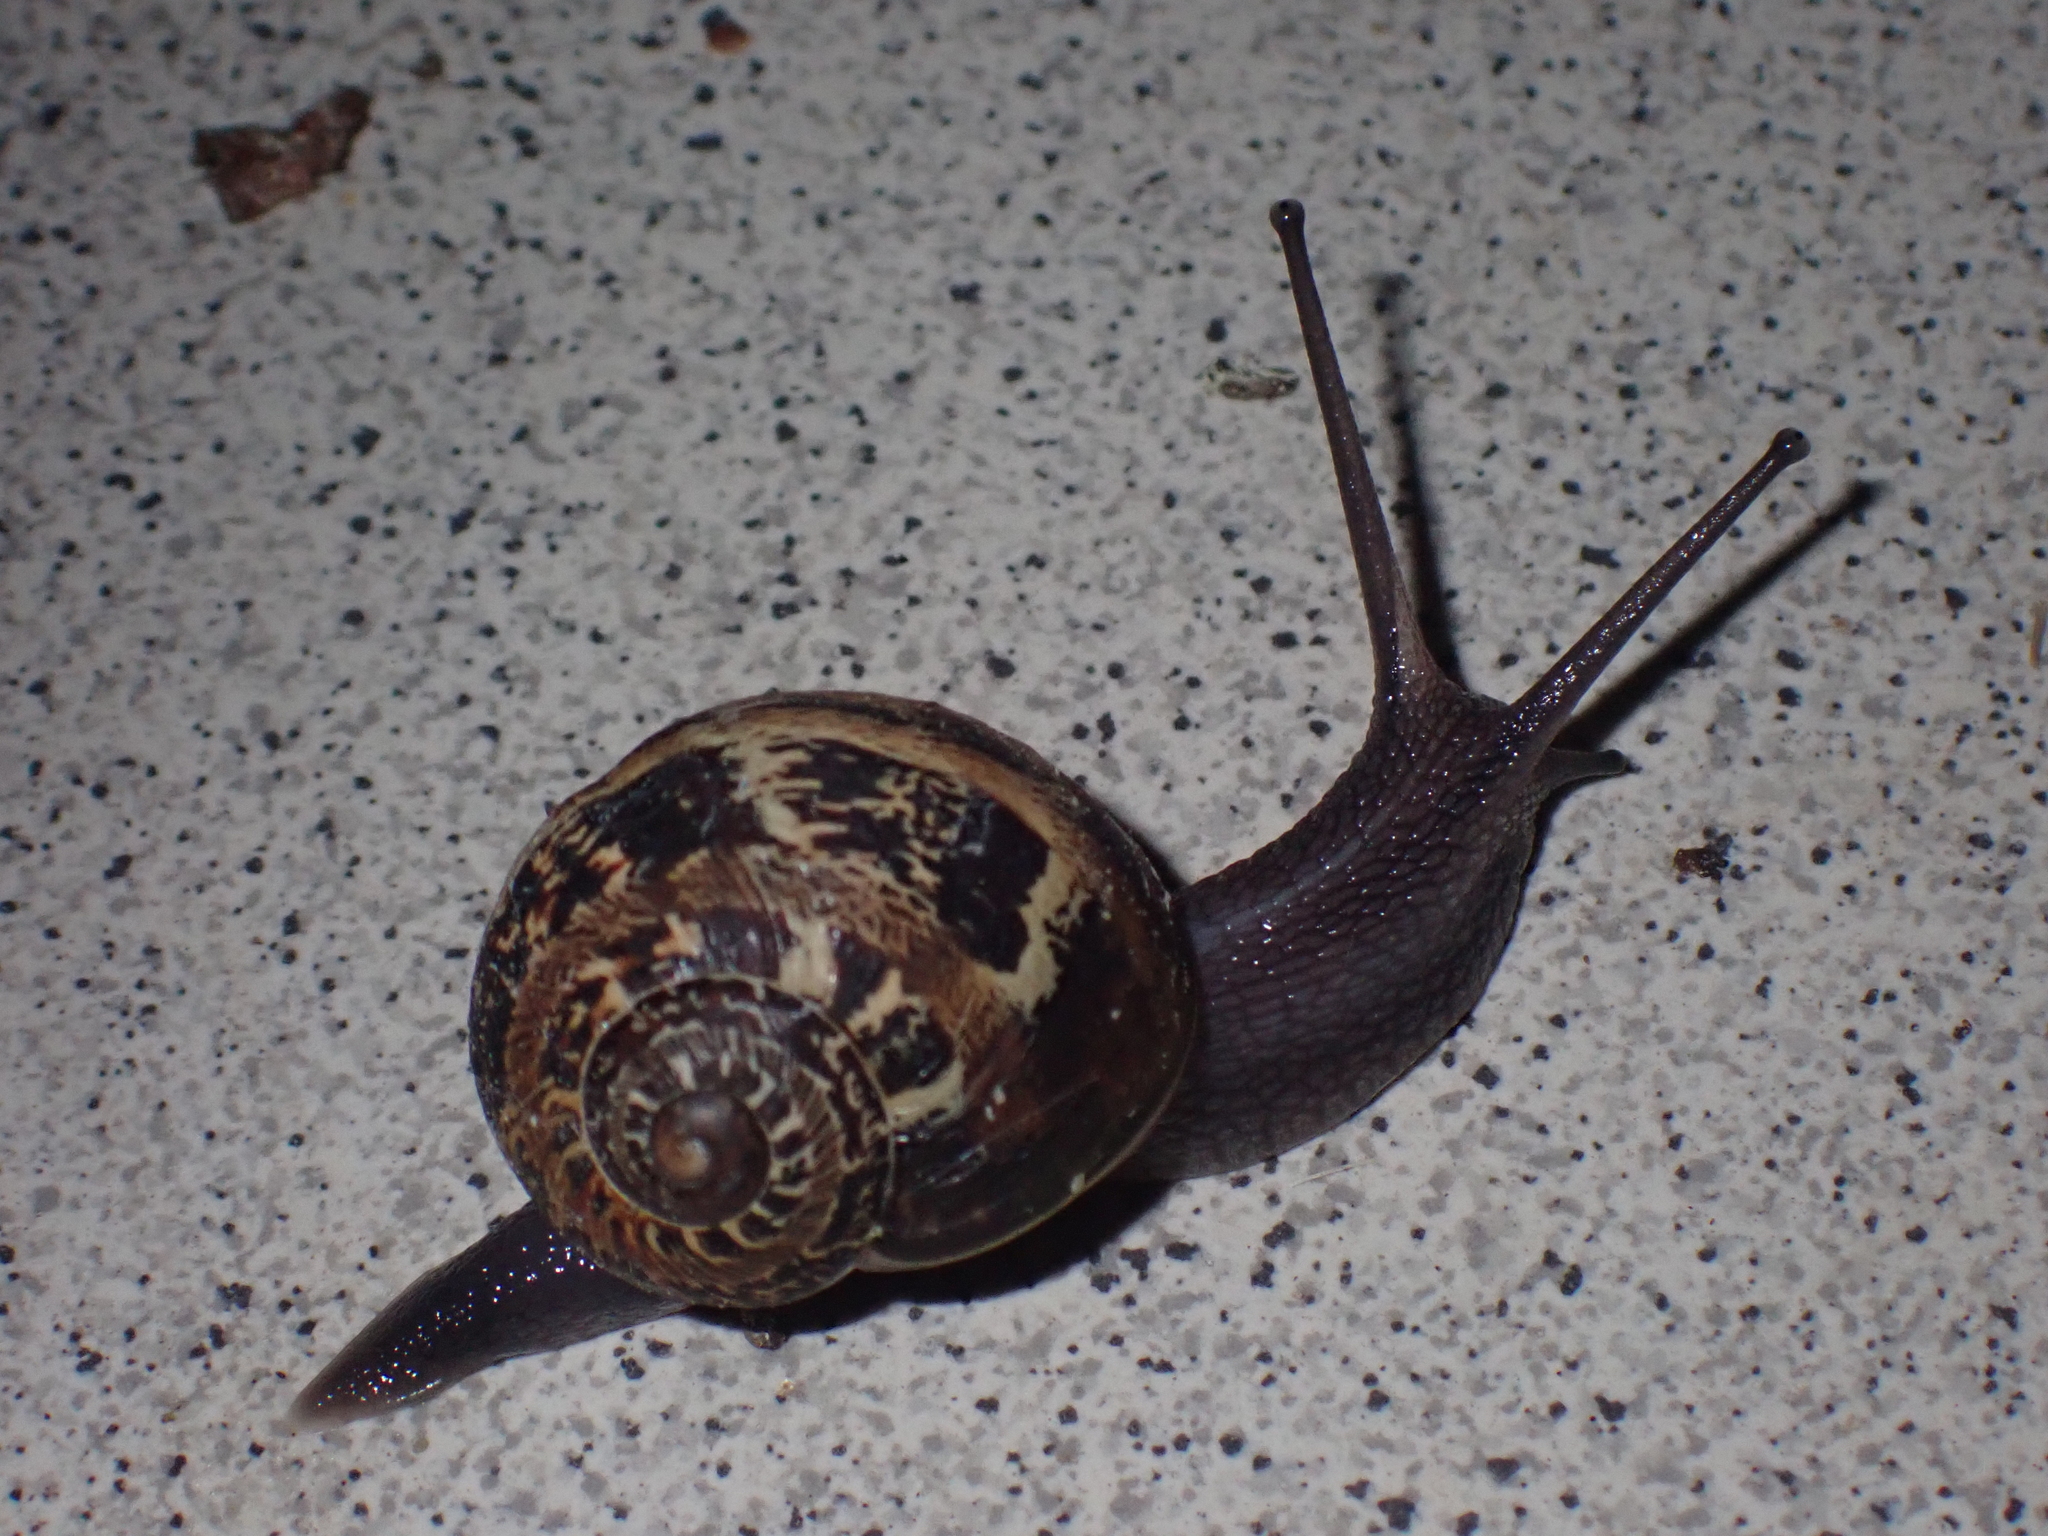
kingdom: Animalia
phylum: Mollusca
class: Gastropoda
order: Stylommatophora
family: Helicidae
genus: Cornu
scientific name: Cornu aspersum
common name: Brown garden snail
